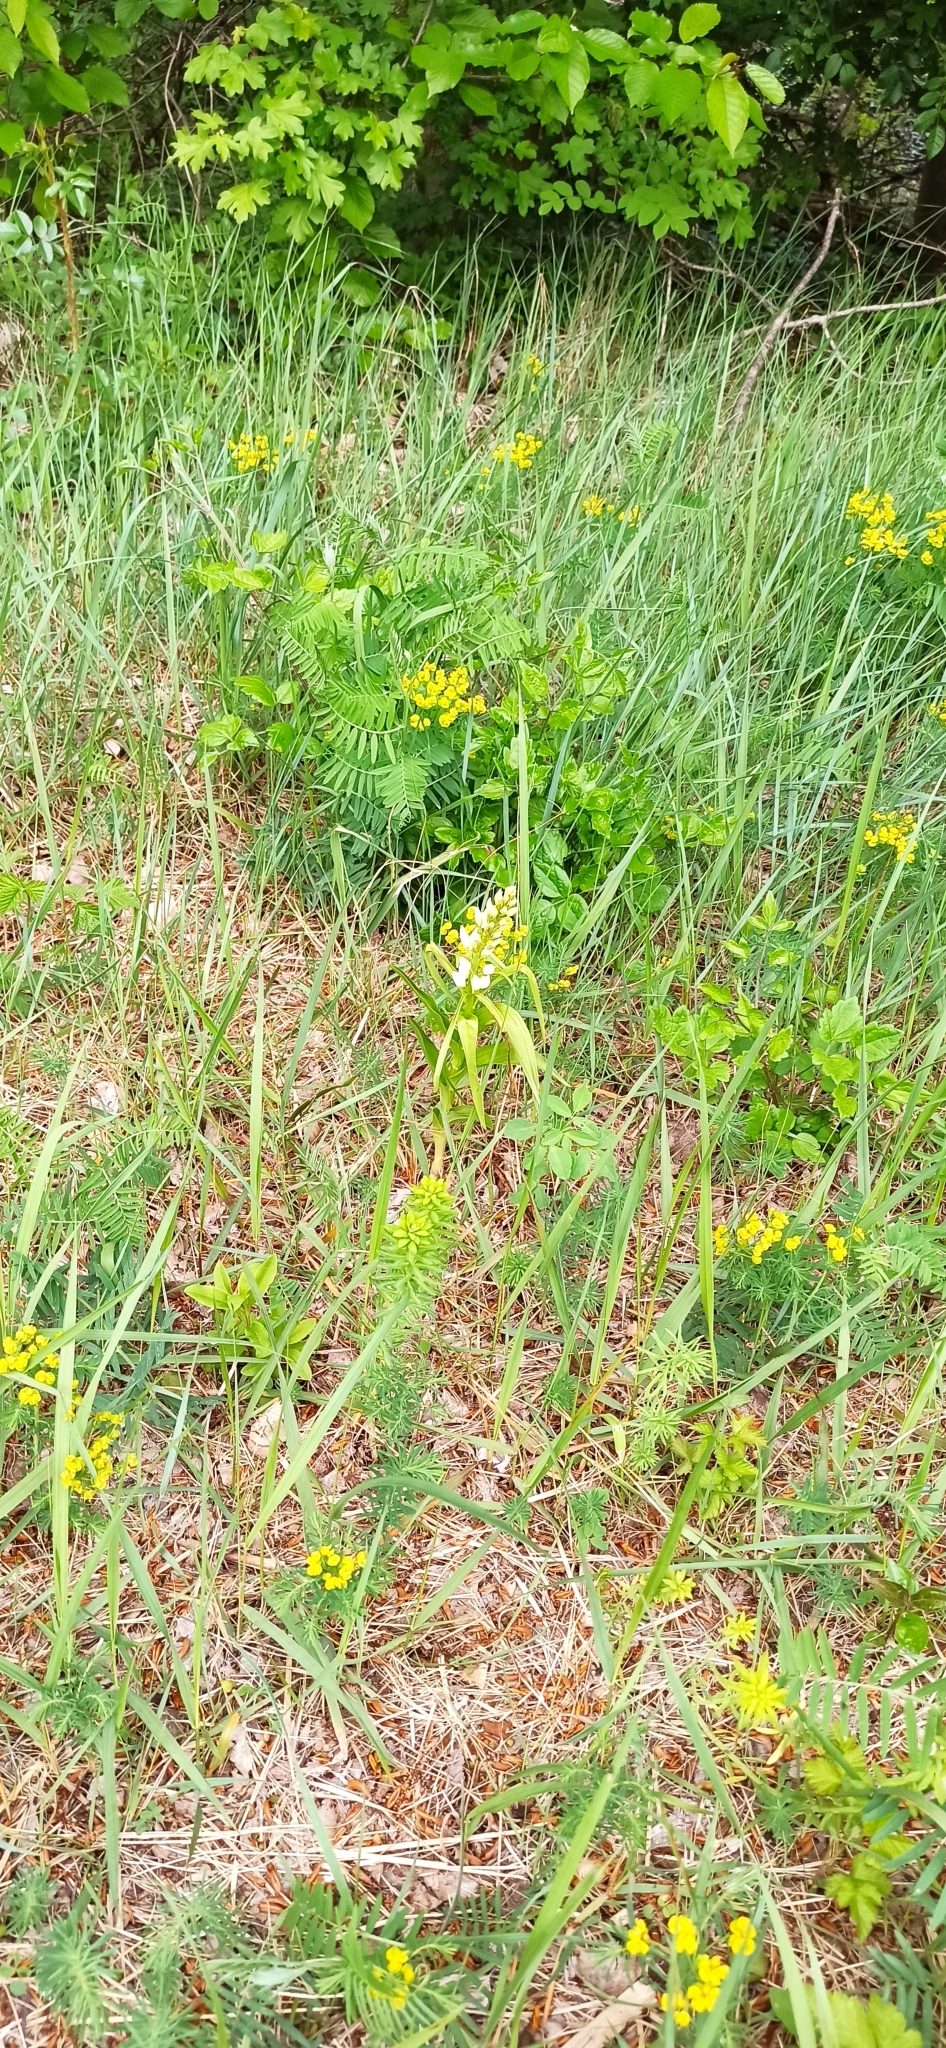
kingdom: Plantae
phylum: Tracheophyta
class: Liliopsida
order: Asparagales
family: Orchidaceae
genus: Cephalanthera
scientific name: Cephalanthera longifolia
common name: Narrow-leaved helleborine
